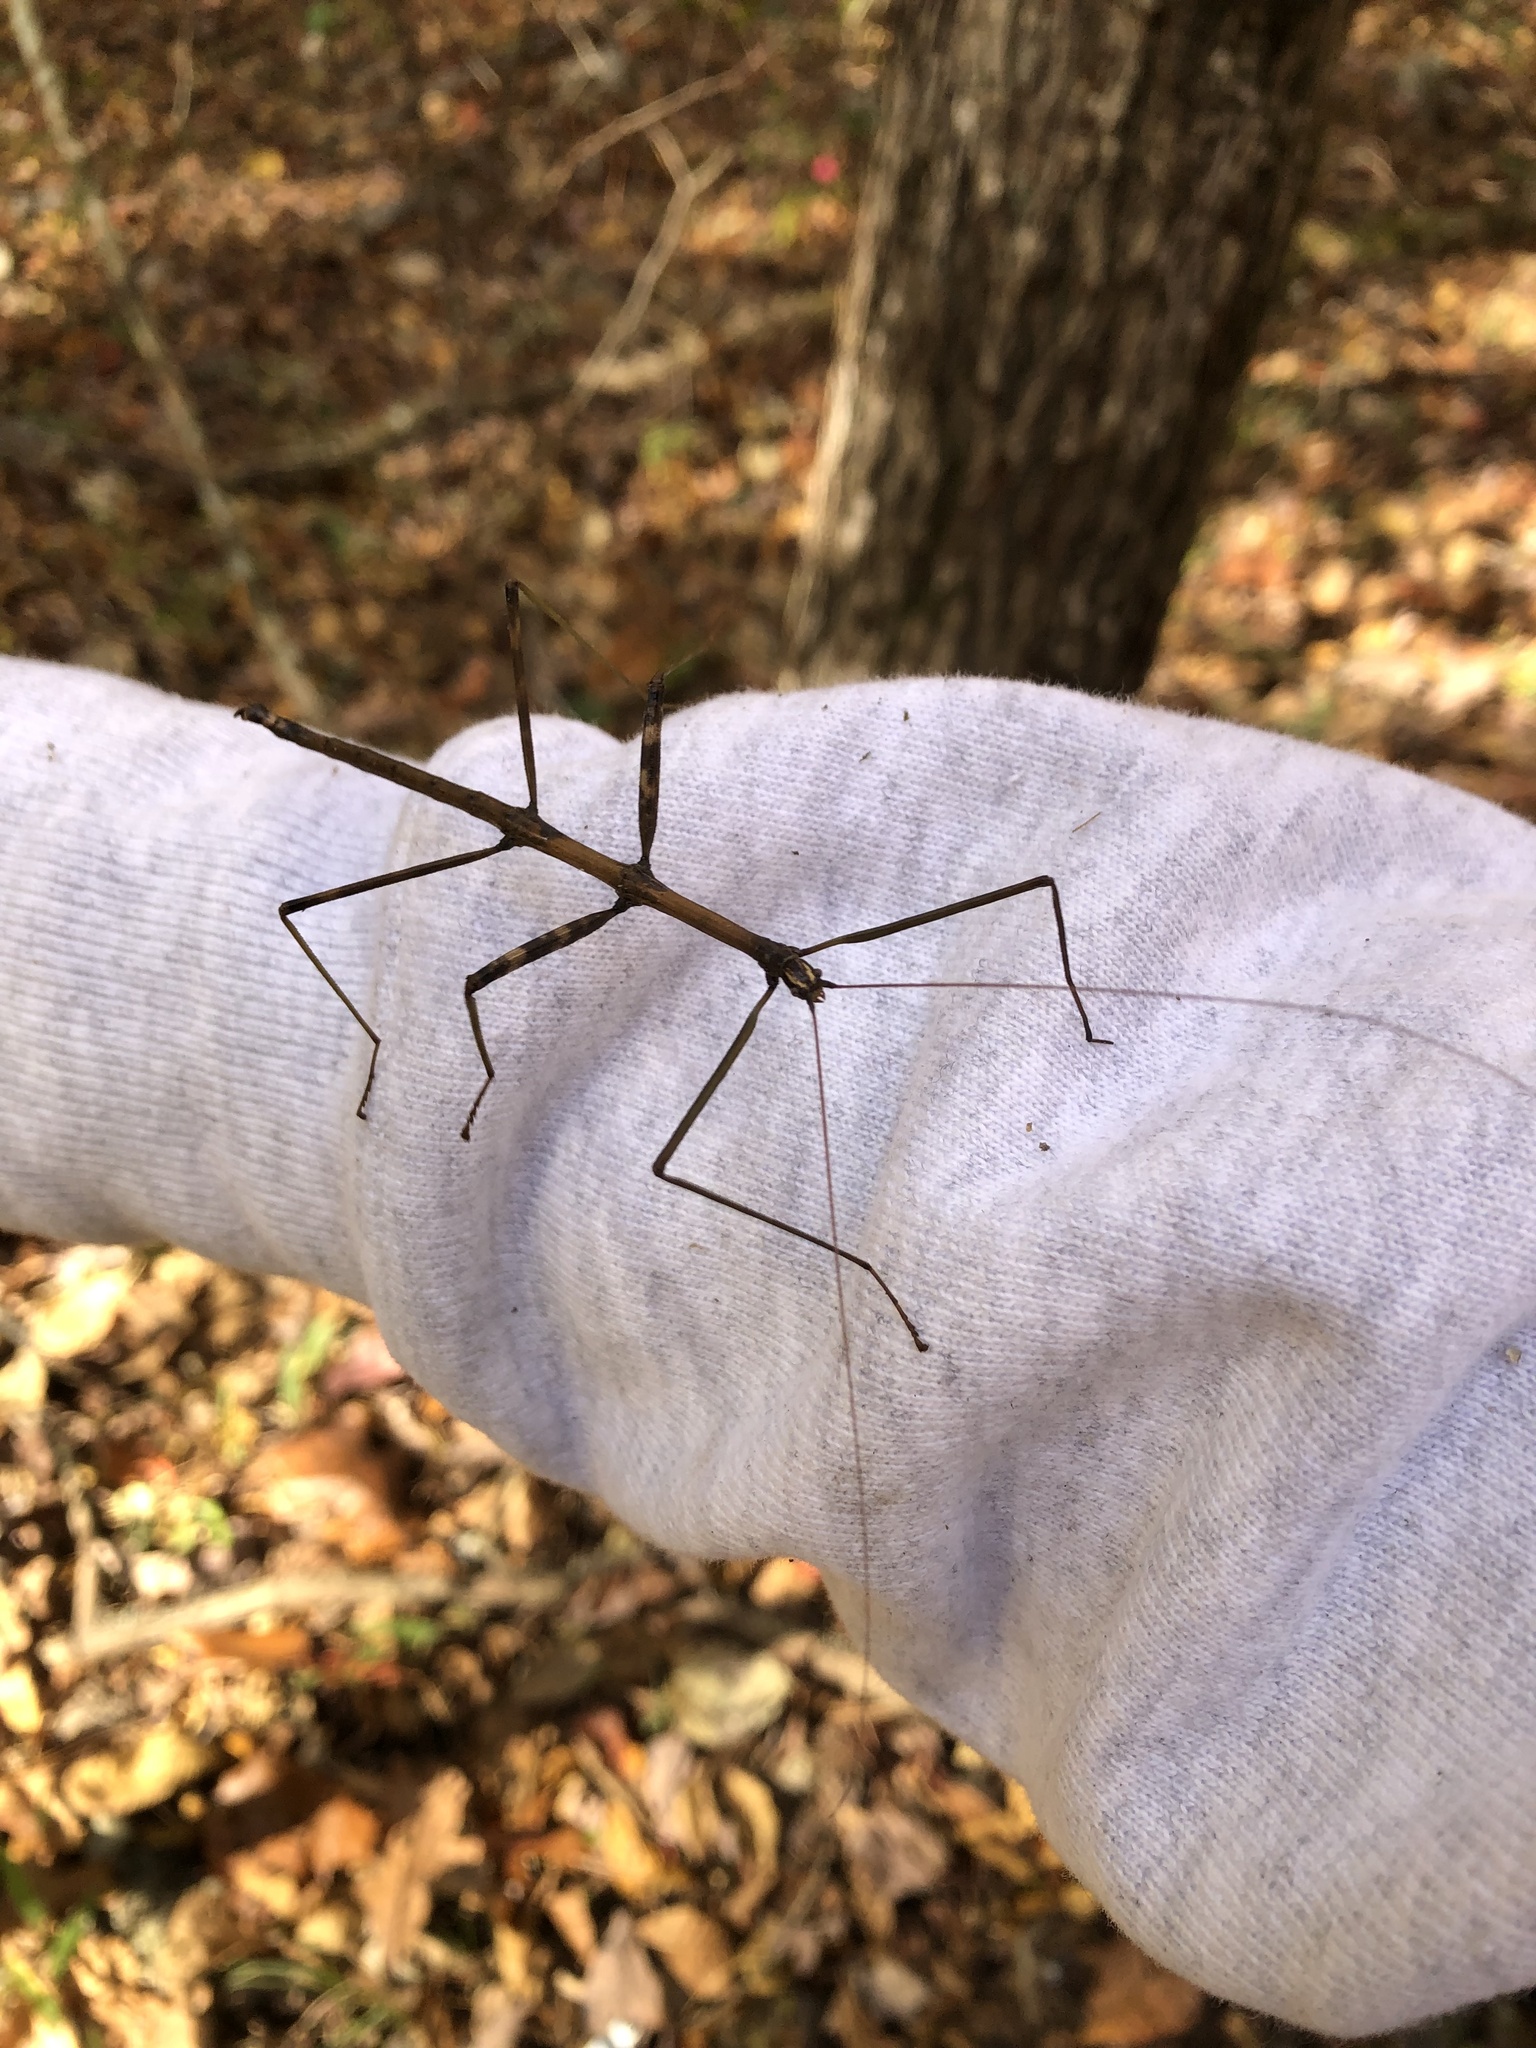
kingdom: Animalia
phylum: Arthropoda
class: Insecta
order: Phasmida
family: Diapheromeridae
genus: Diapheromera
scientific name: Diapheromera femorata
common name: Common american walkingstick
